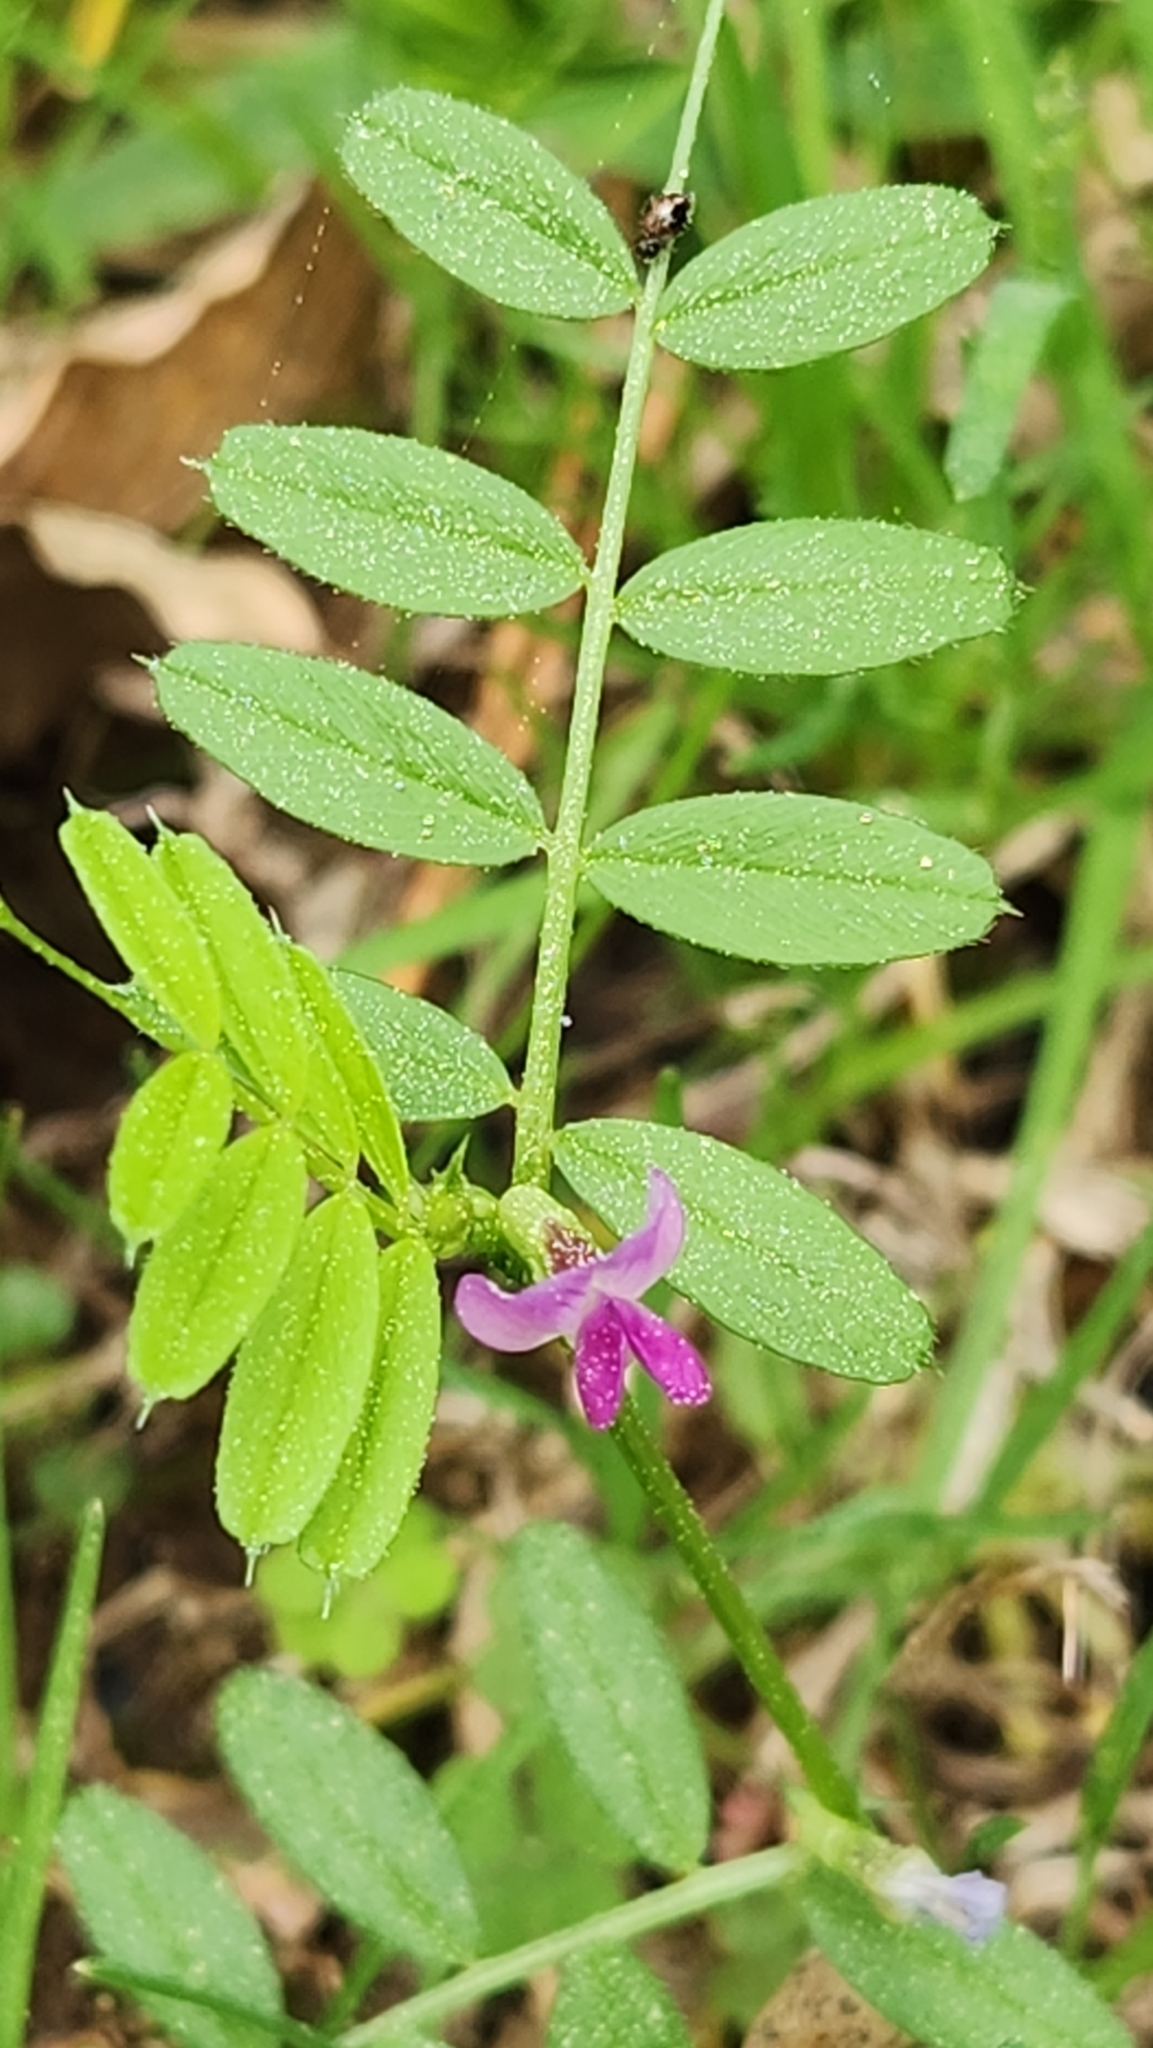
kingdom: Plantae
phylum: Tracheophyta
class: Magnoliopsida
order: Fabales
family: Fabaceae
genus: Vicia
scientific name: Vicia sativa
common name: Garden vetch
